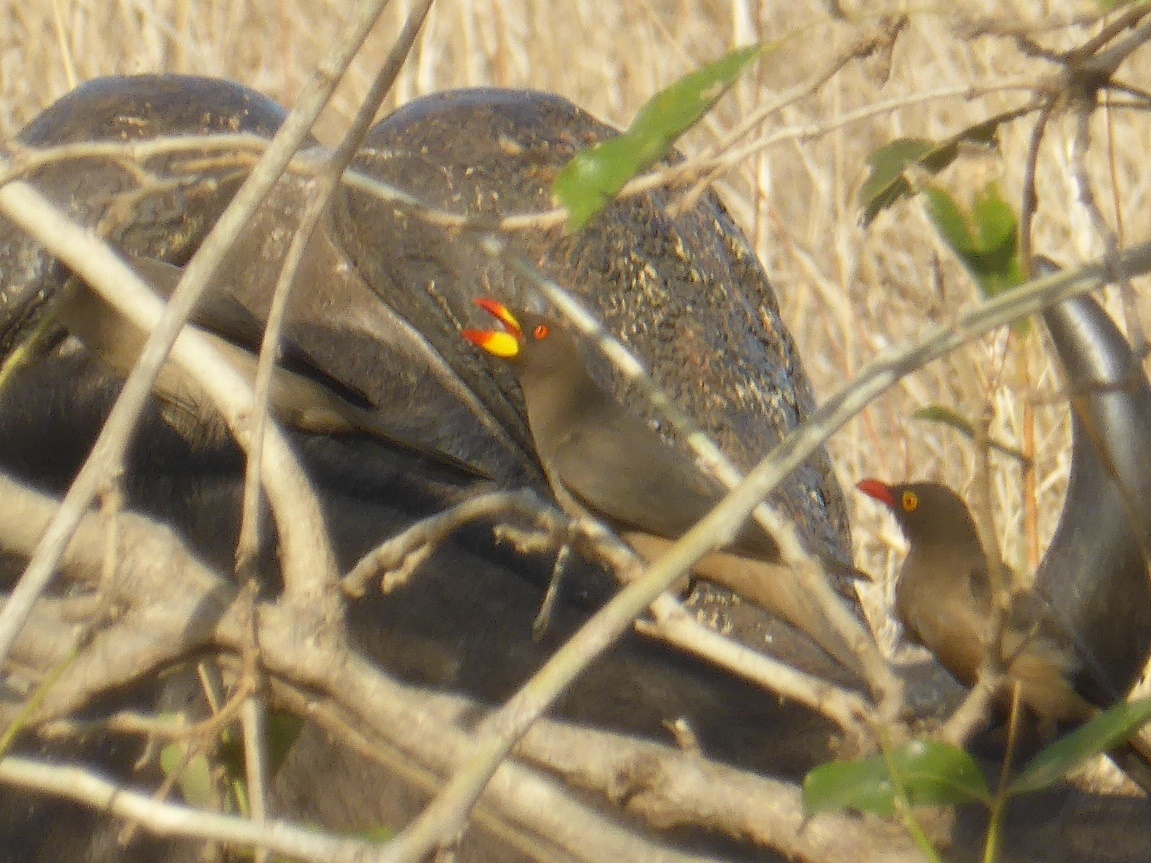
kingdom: Animalia
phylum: Chordata
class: Aves
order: Passeriformes
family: Buphagidae
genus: Buphagus
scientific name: Buphagus africanus
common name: Yellow-billed oxpecker
